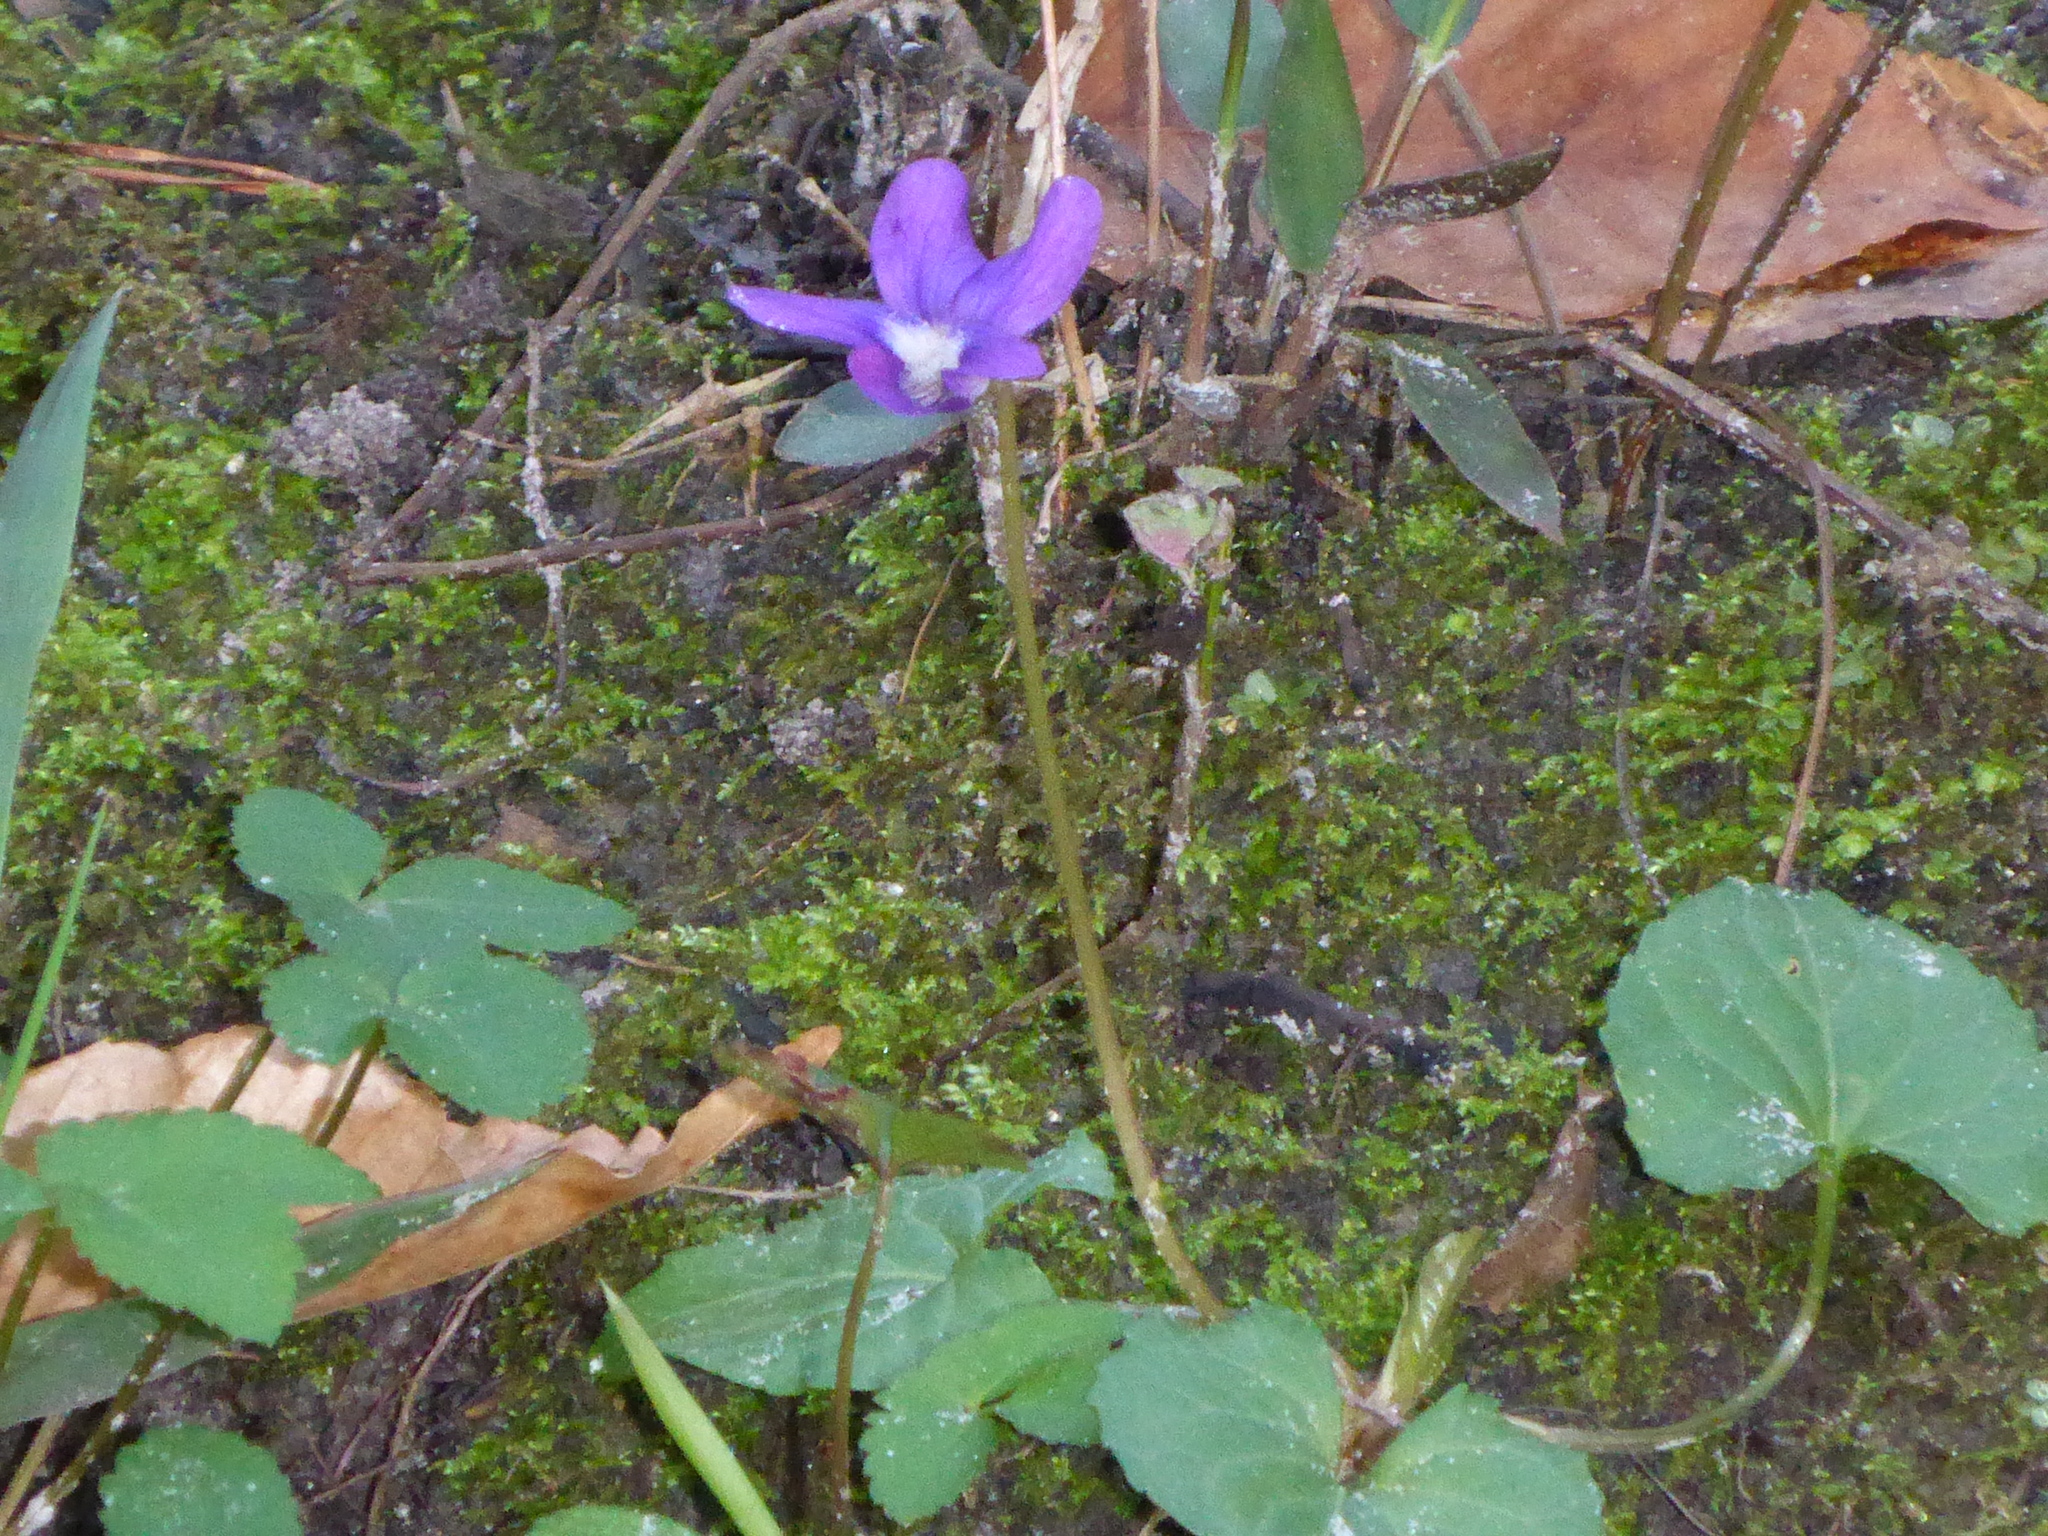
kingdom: Plantae
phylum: Tracheophyta
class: Magnoliopsida
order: Malpighiales
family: Violaceae
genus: Viola
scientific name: Viola sororia
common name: Dooryard violet
